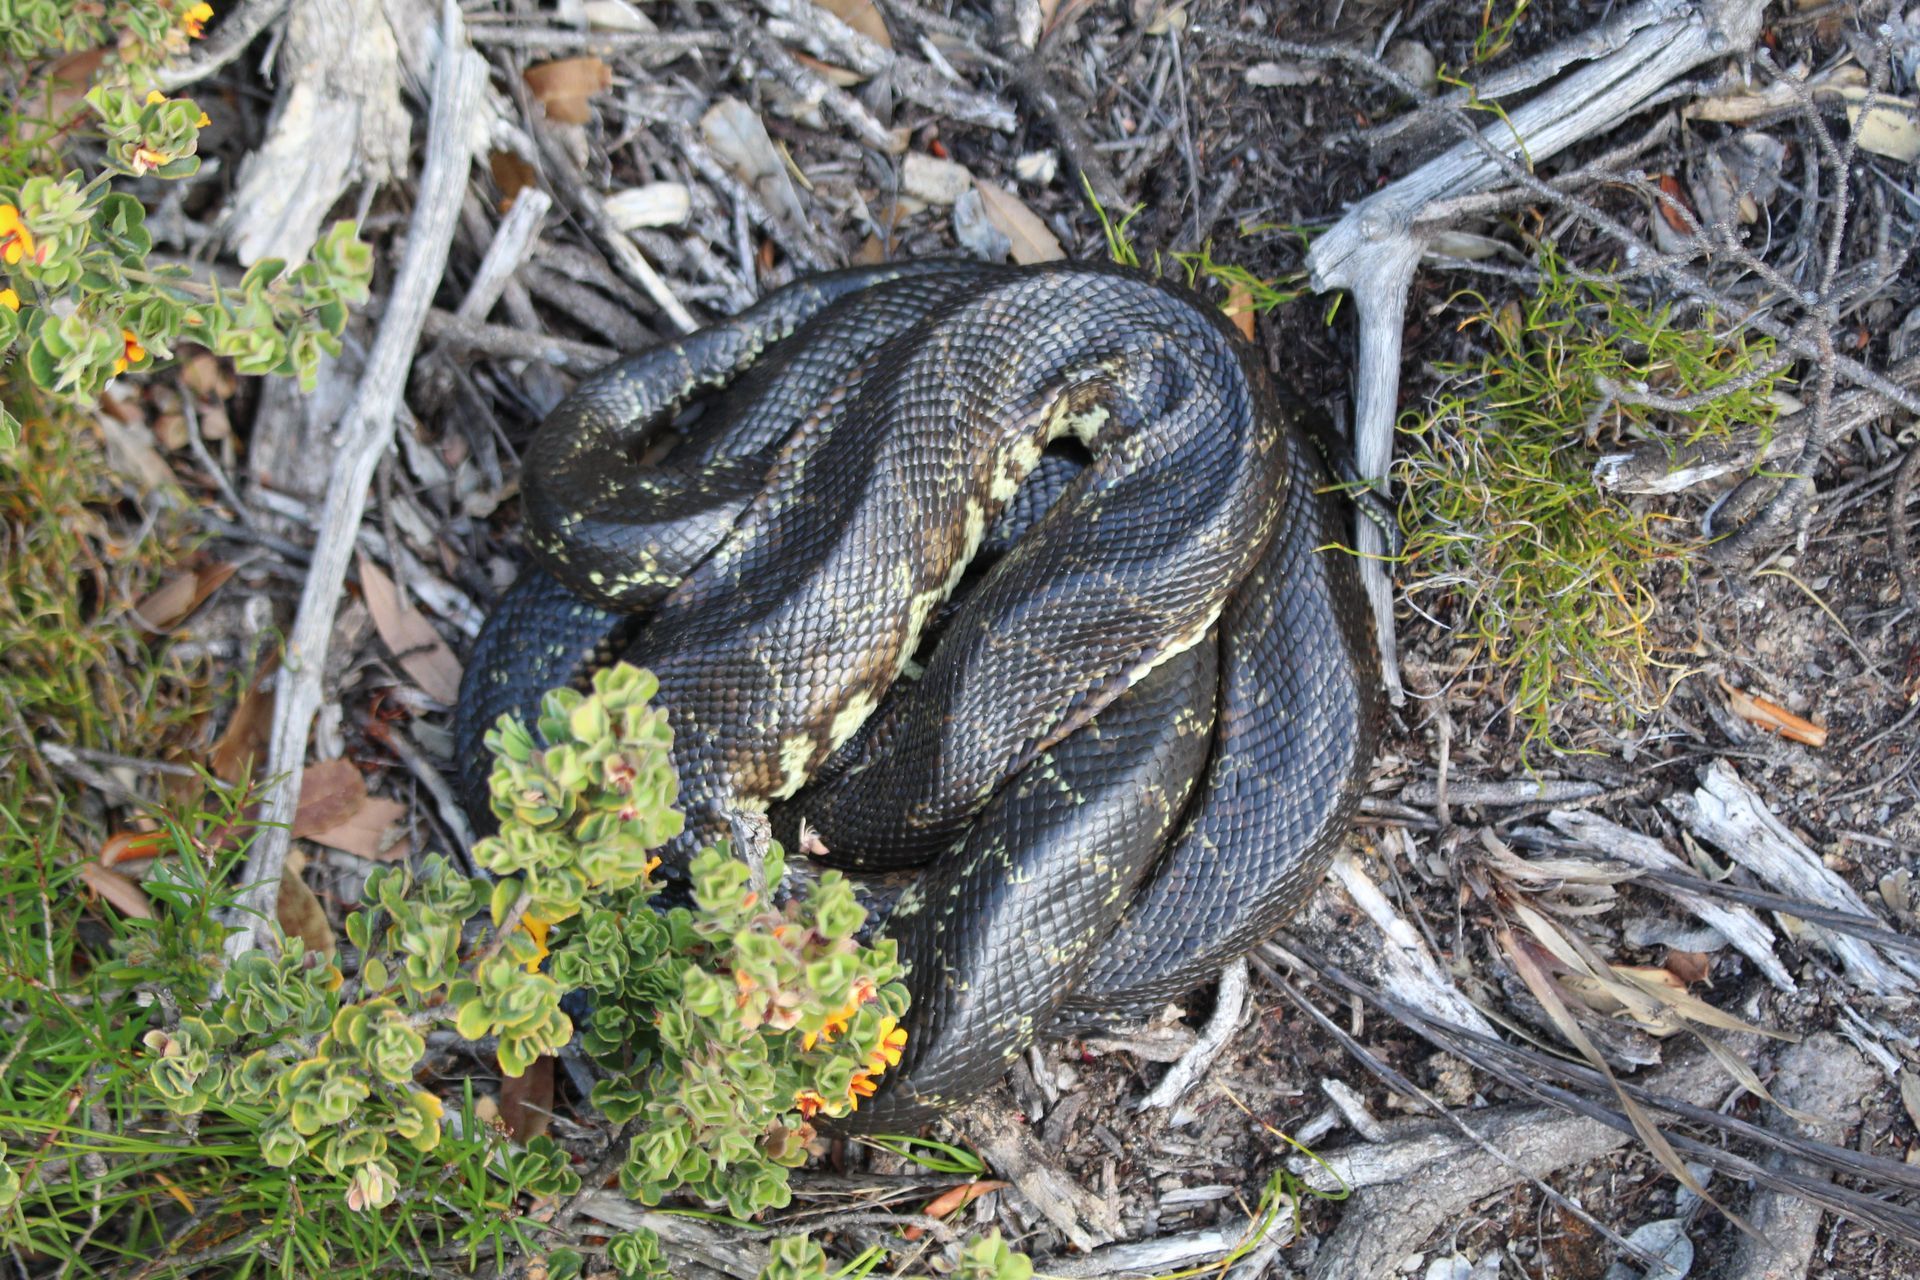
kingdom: Animalia
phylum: Chordata
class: Squamata
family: Pythonidae
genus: Morelia
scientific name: Morelia imbricata
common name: Carpet python
